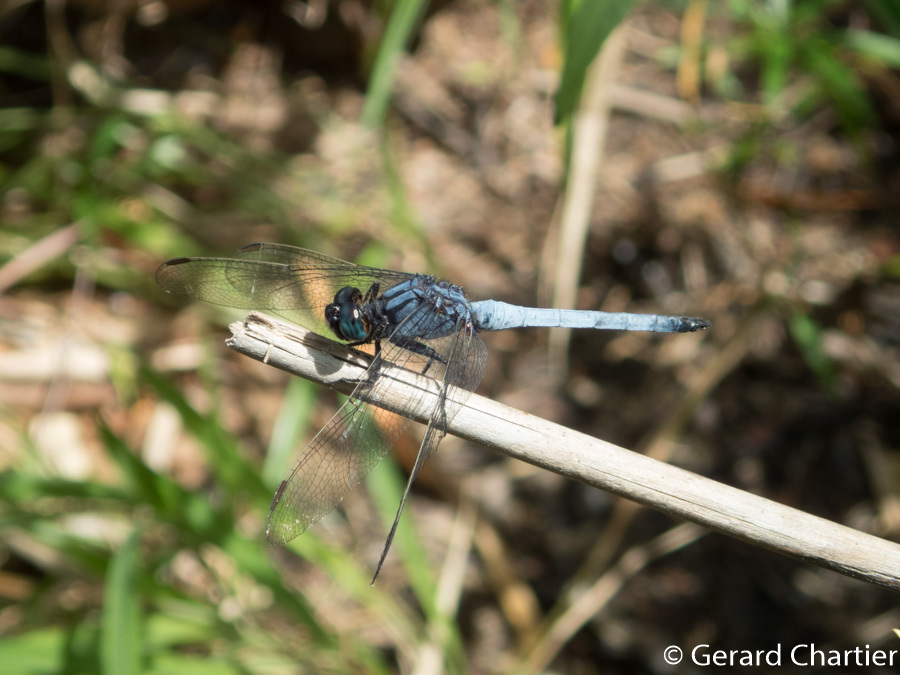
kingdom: Animalia
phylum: Arthropoda
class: Insecta
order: Odonata
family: Libellulidae
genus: Orthetrum
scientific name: Orthetrum glaucum
